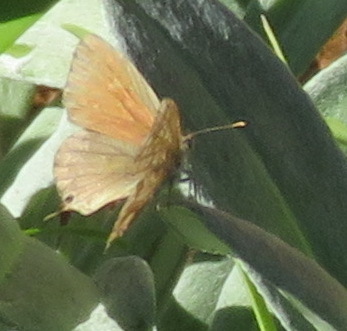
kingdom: Animalia
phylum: Arthropoda
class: Insecta
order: Lepidoptera
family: Lycaenidae
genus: Cacyreus
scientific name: Cacyreus marshalli
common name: Geranium bronze
